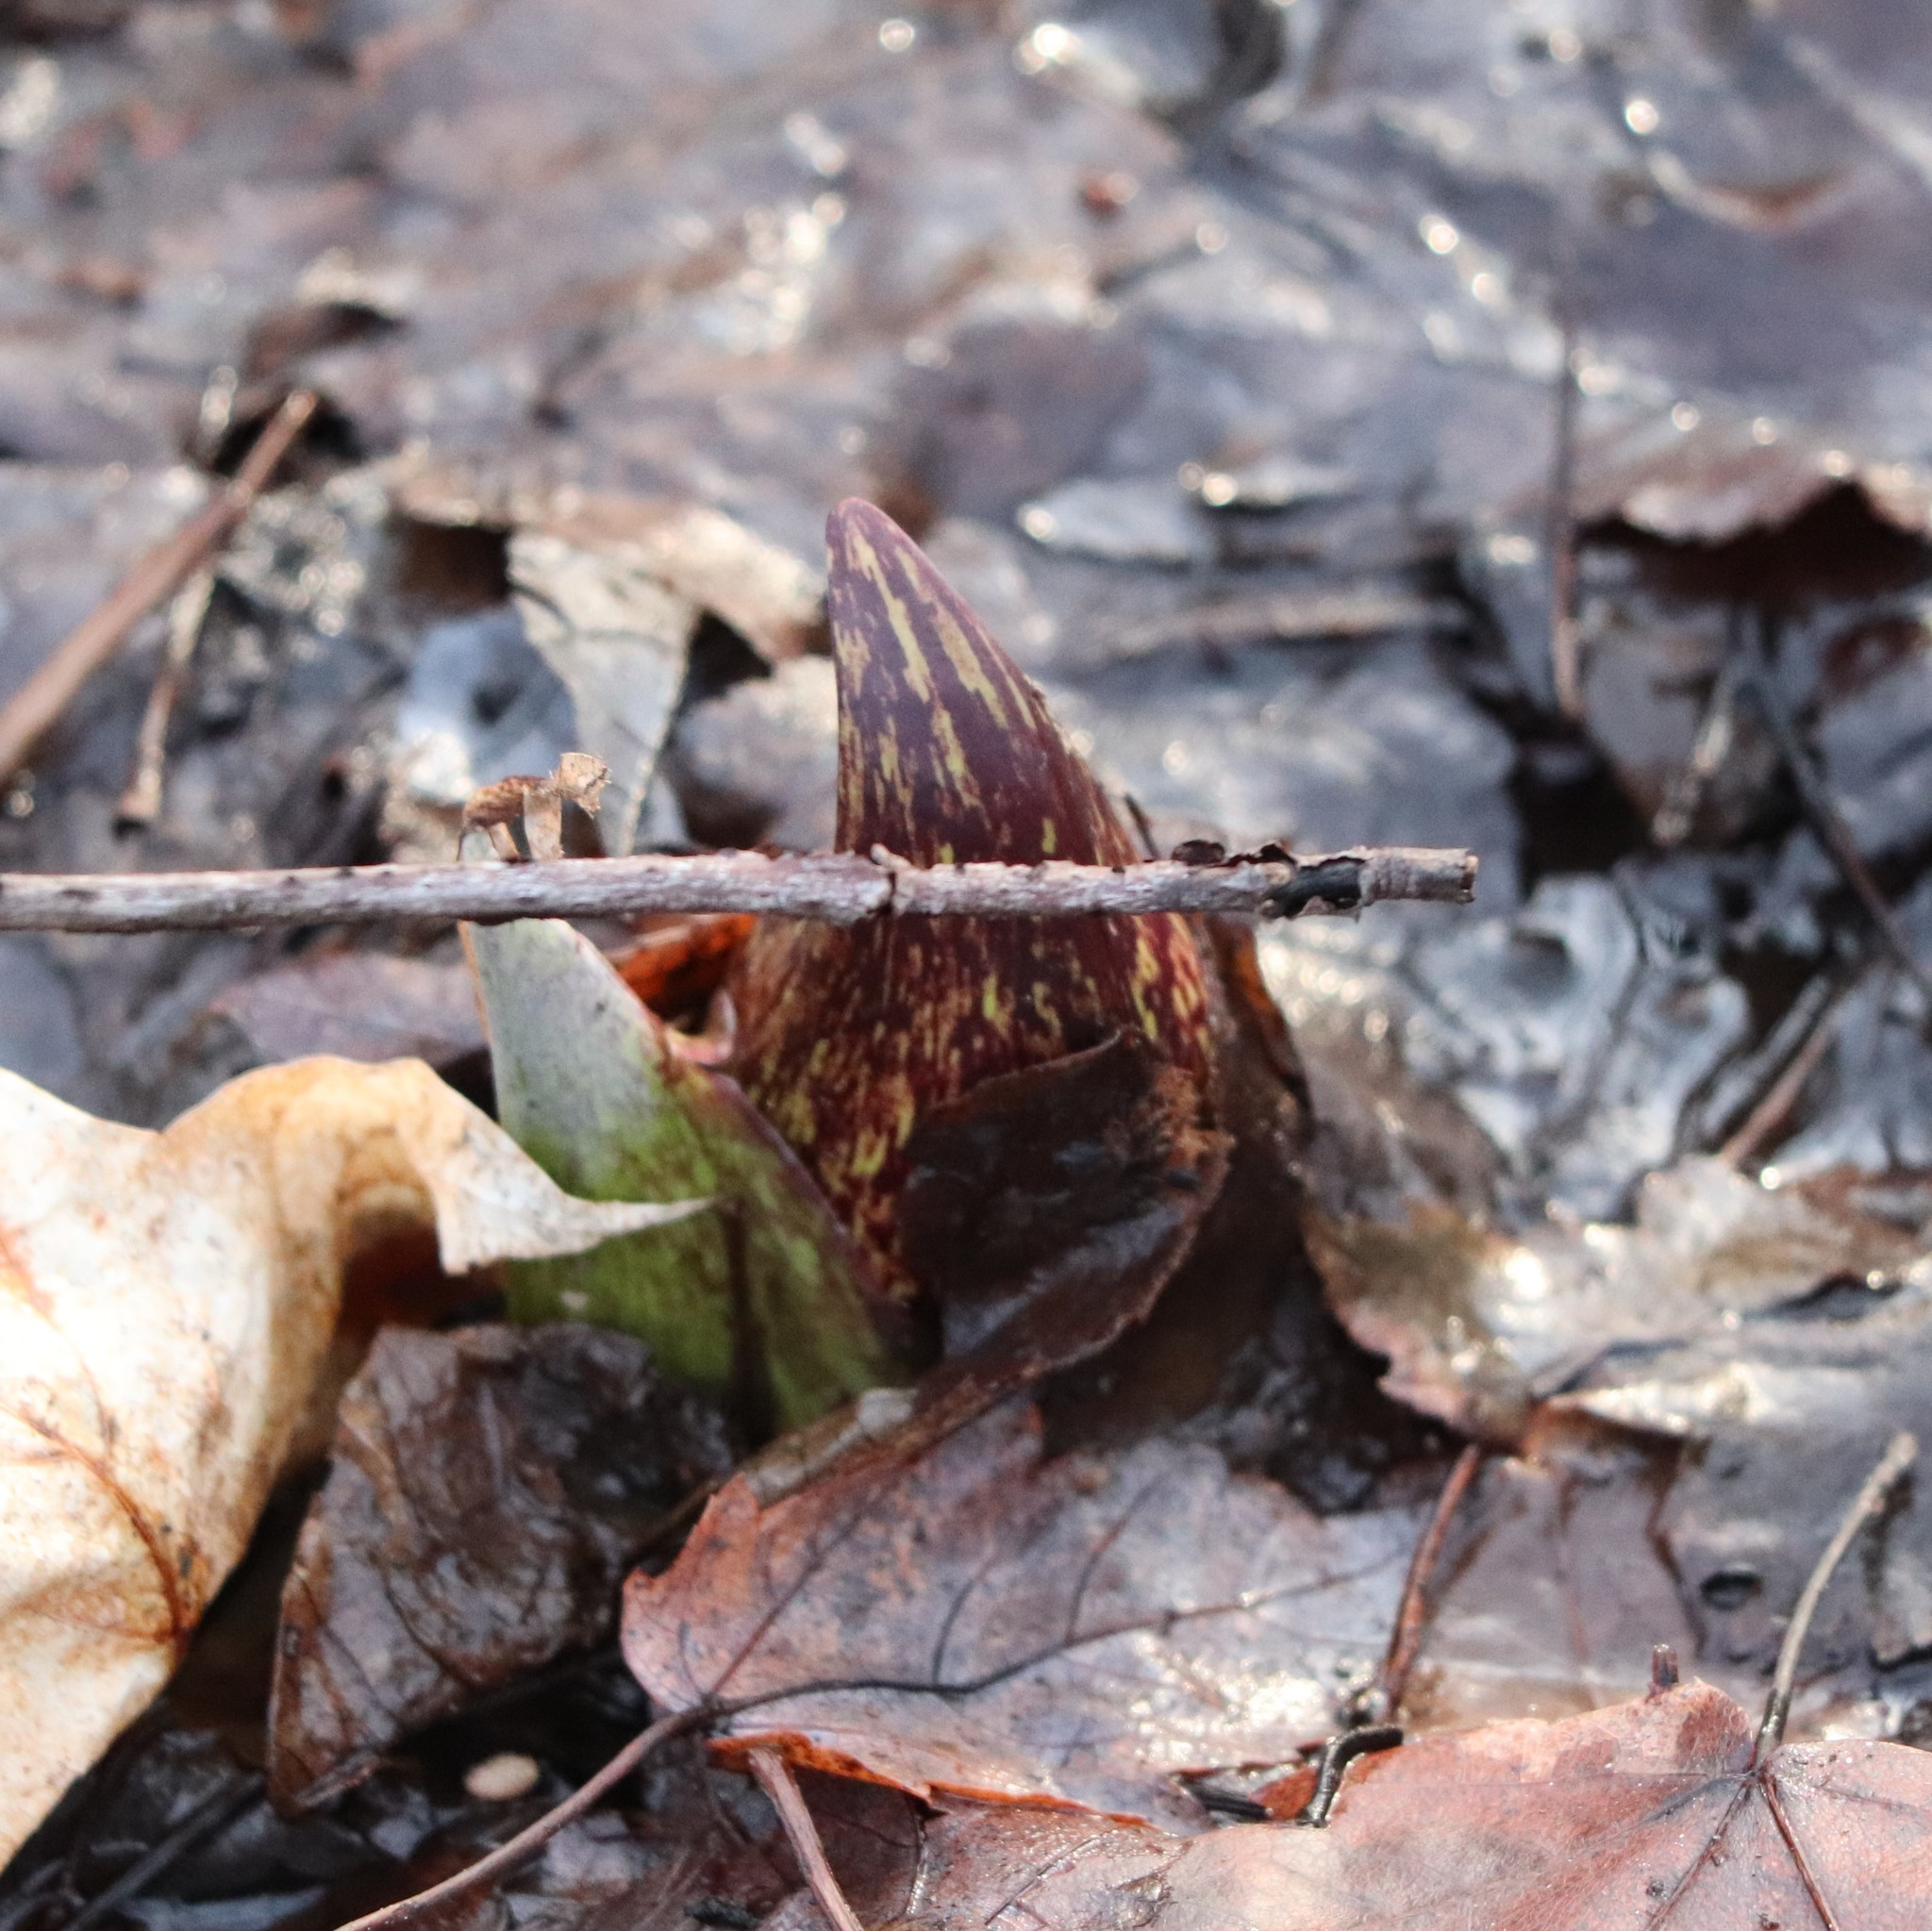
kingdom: Plantae
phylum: Tracheophyta
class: Liliopsida
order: Alismatales
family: Araceae
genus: Symplocarpus
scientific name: Symplocarpus foetidus
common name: Eastern skunk cabbage
